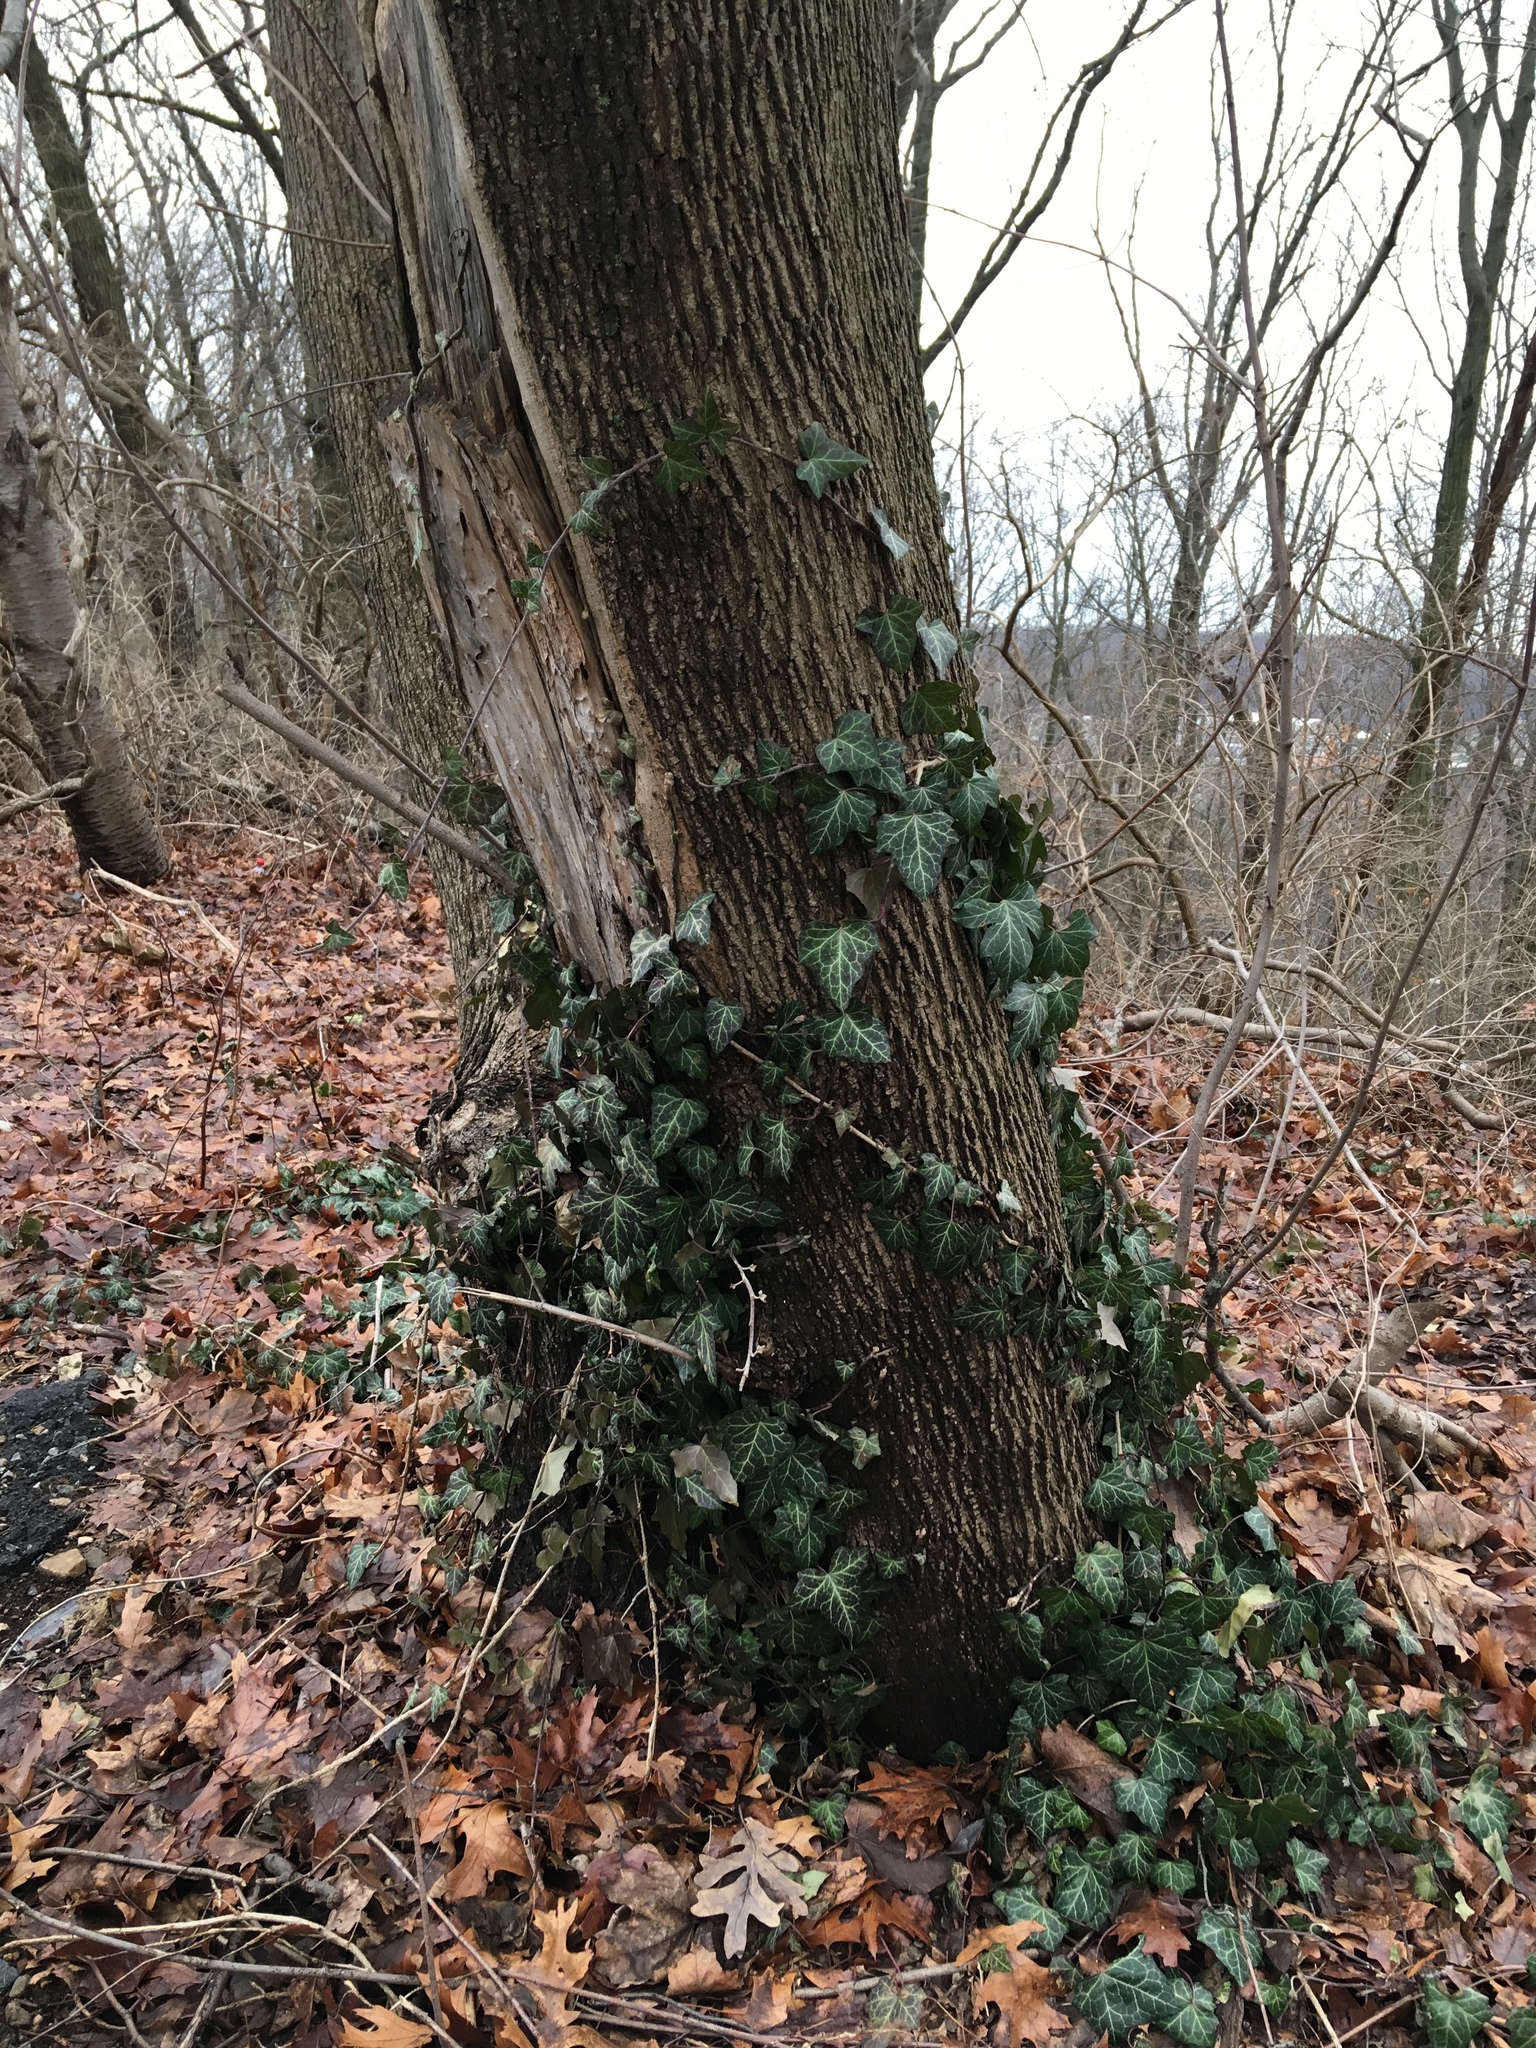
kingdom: Plantae
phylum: Tracheophyta
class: Magnoliopsida
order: Apiales
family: Araliaceae
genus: Hedera
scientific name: Hedera helix
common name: Ivy
